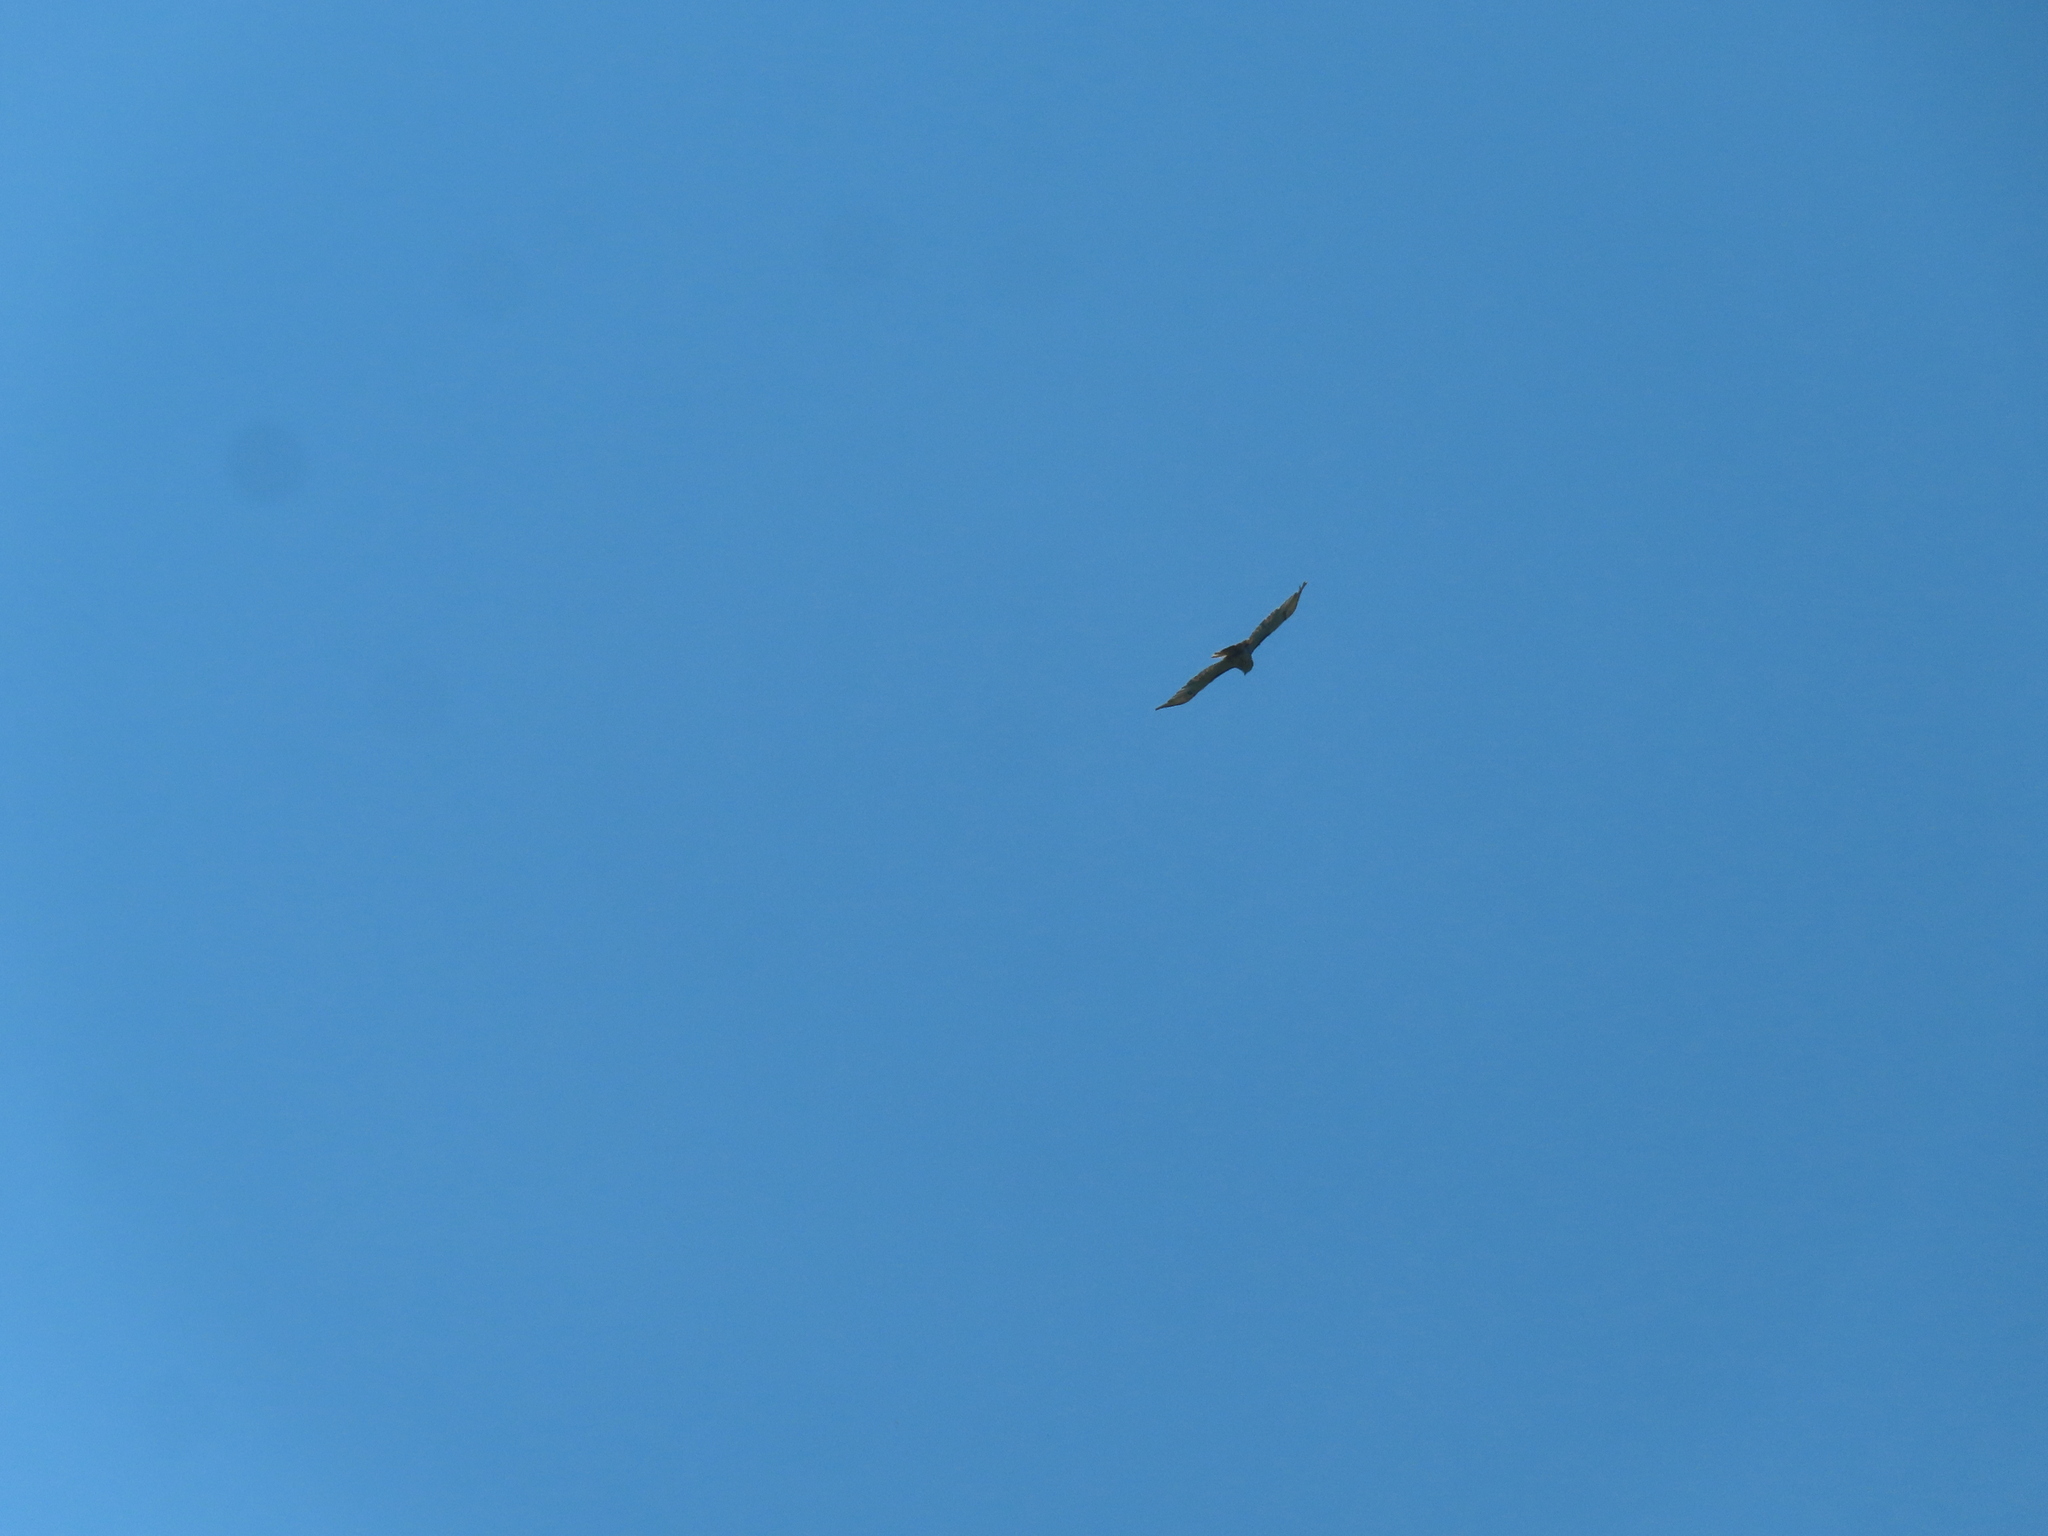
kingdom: Animalia
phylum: Chordata
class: Aves
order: Accipitriformes
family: Accipitridae
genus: Buteo
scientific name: Buteo jamaicensis
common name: Red-tailed hawk
